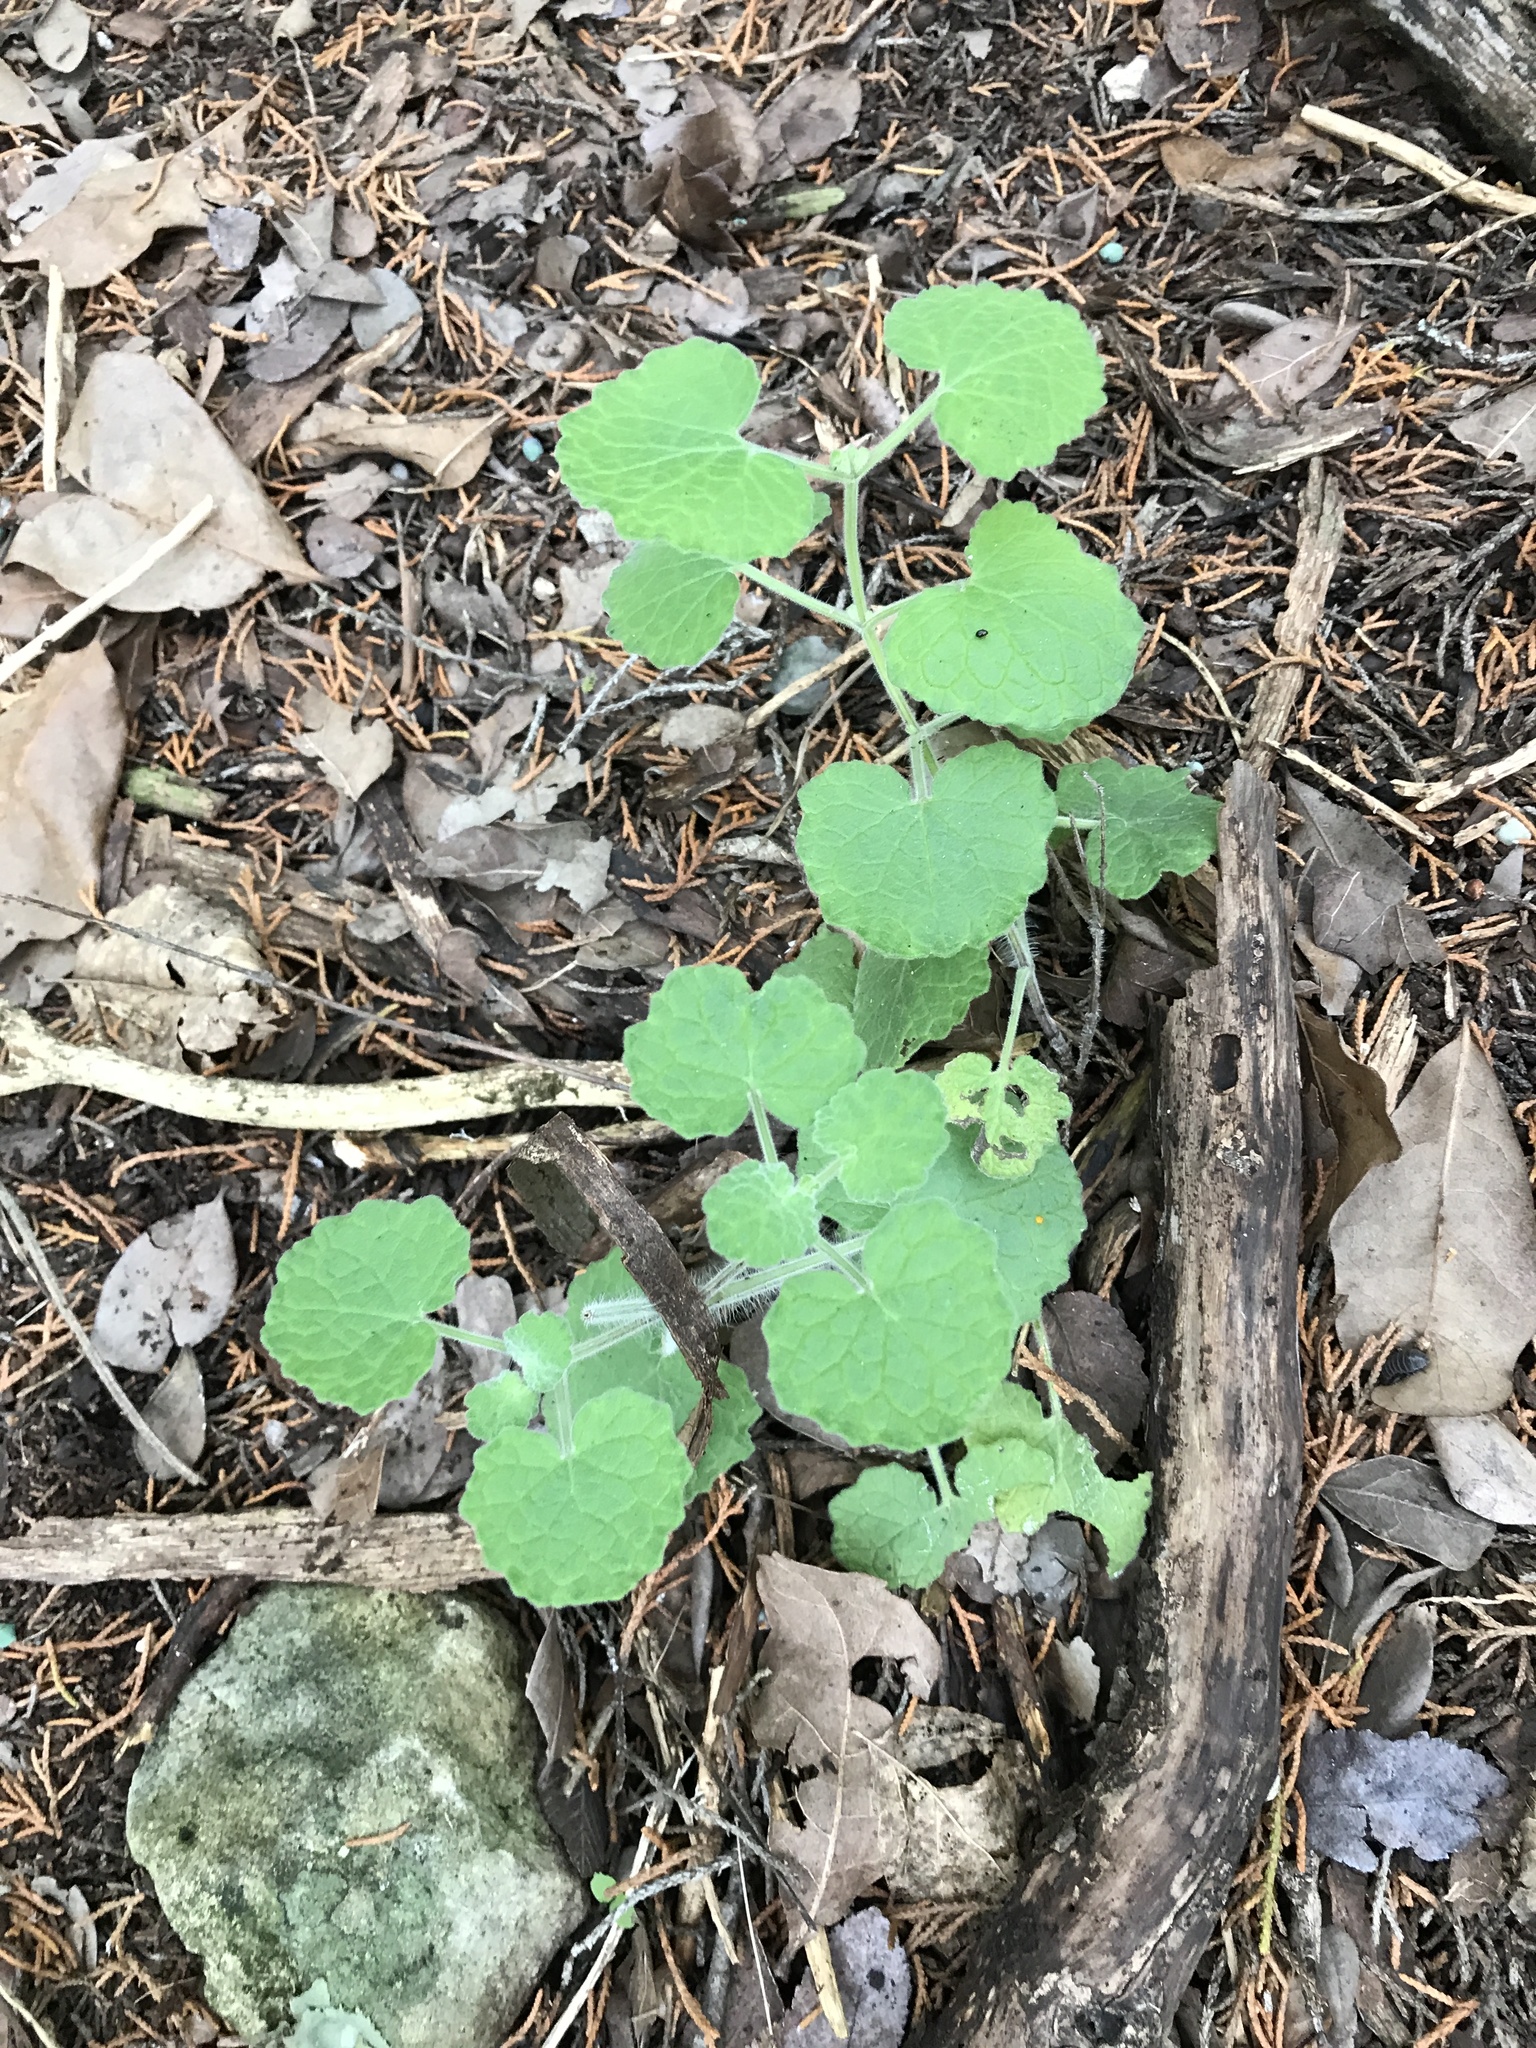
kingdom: Plantae
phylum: Tracheophyta
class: Magnoliopsida
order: Lamiales
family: Lamiaceae
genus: Salvia
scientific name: Salvia roemeriana
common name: Cedar sage
